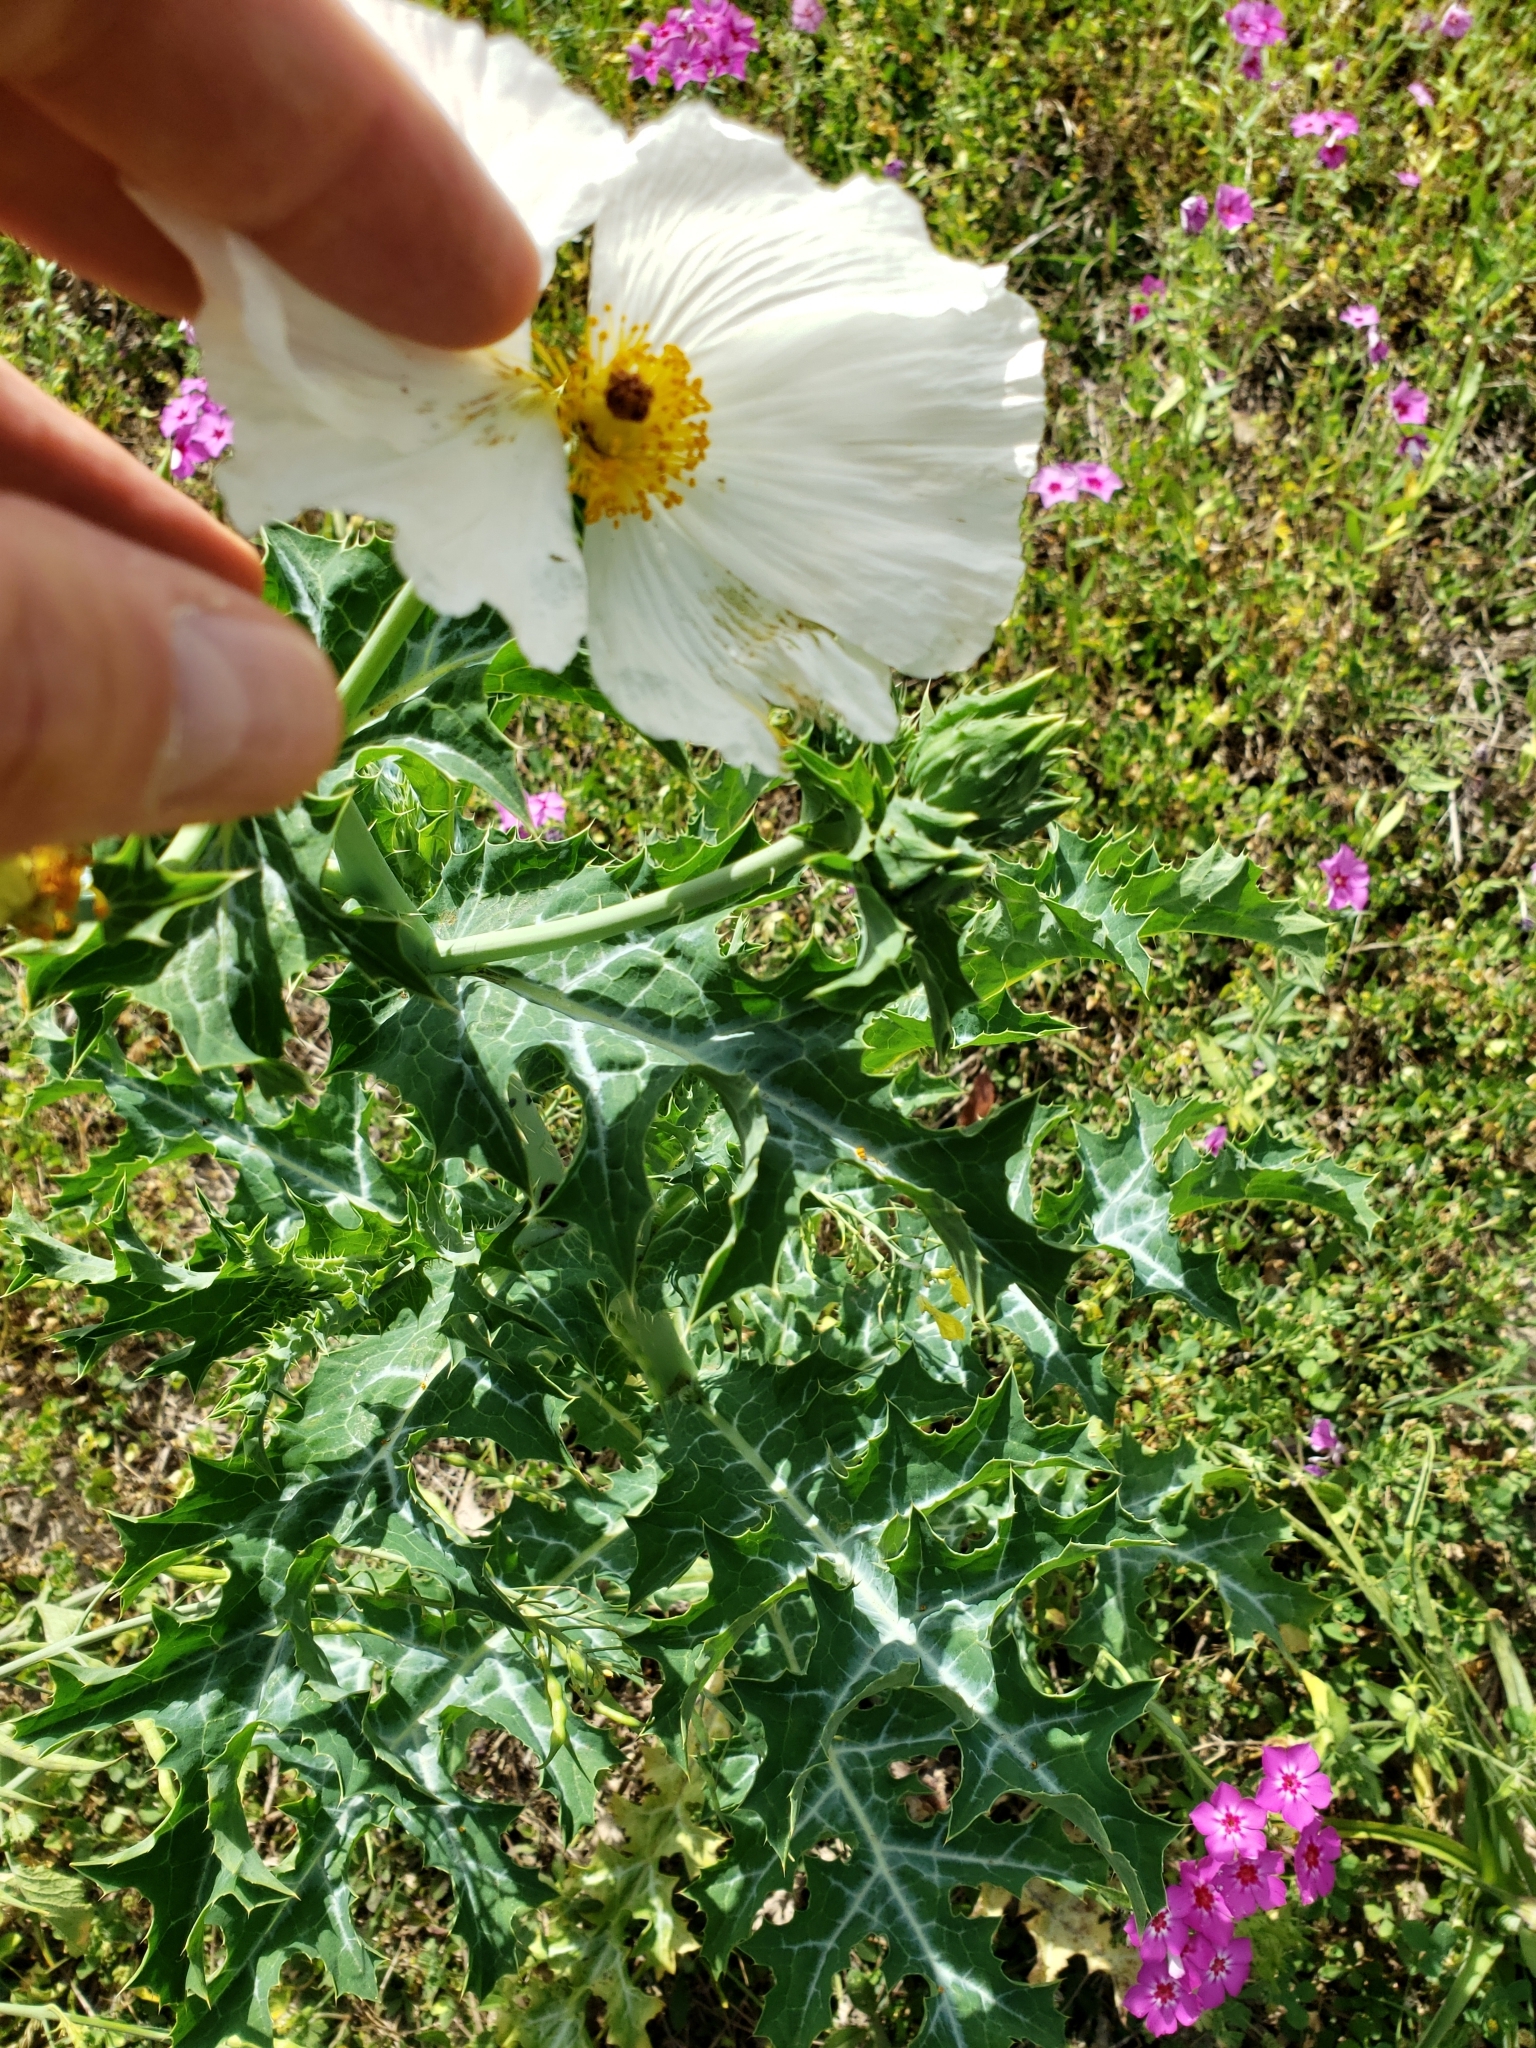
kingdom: Plantae
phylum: Tracheophyta
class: Magnoliopsida
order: Ranunculales
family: Papaveraceae
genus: Argemone
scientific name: Argemone albiflora
